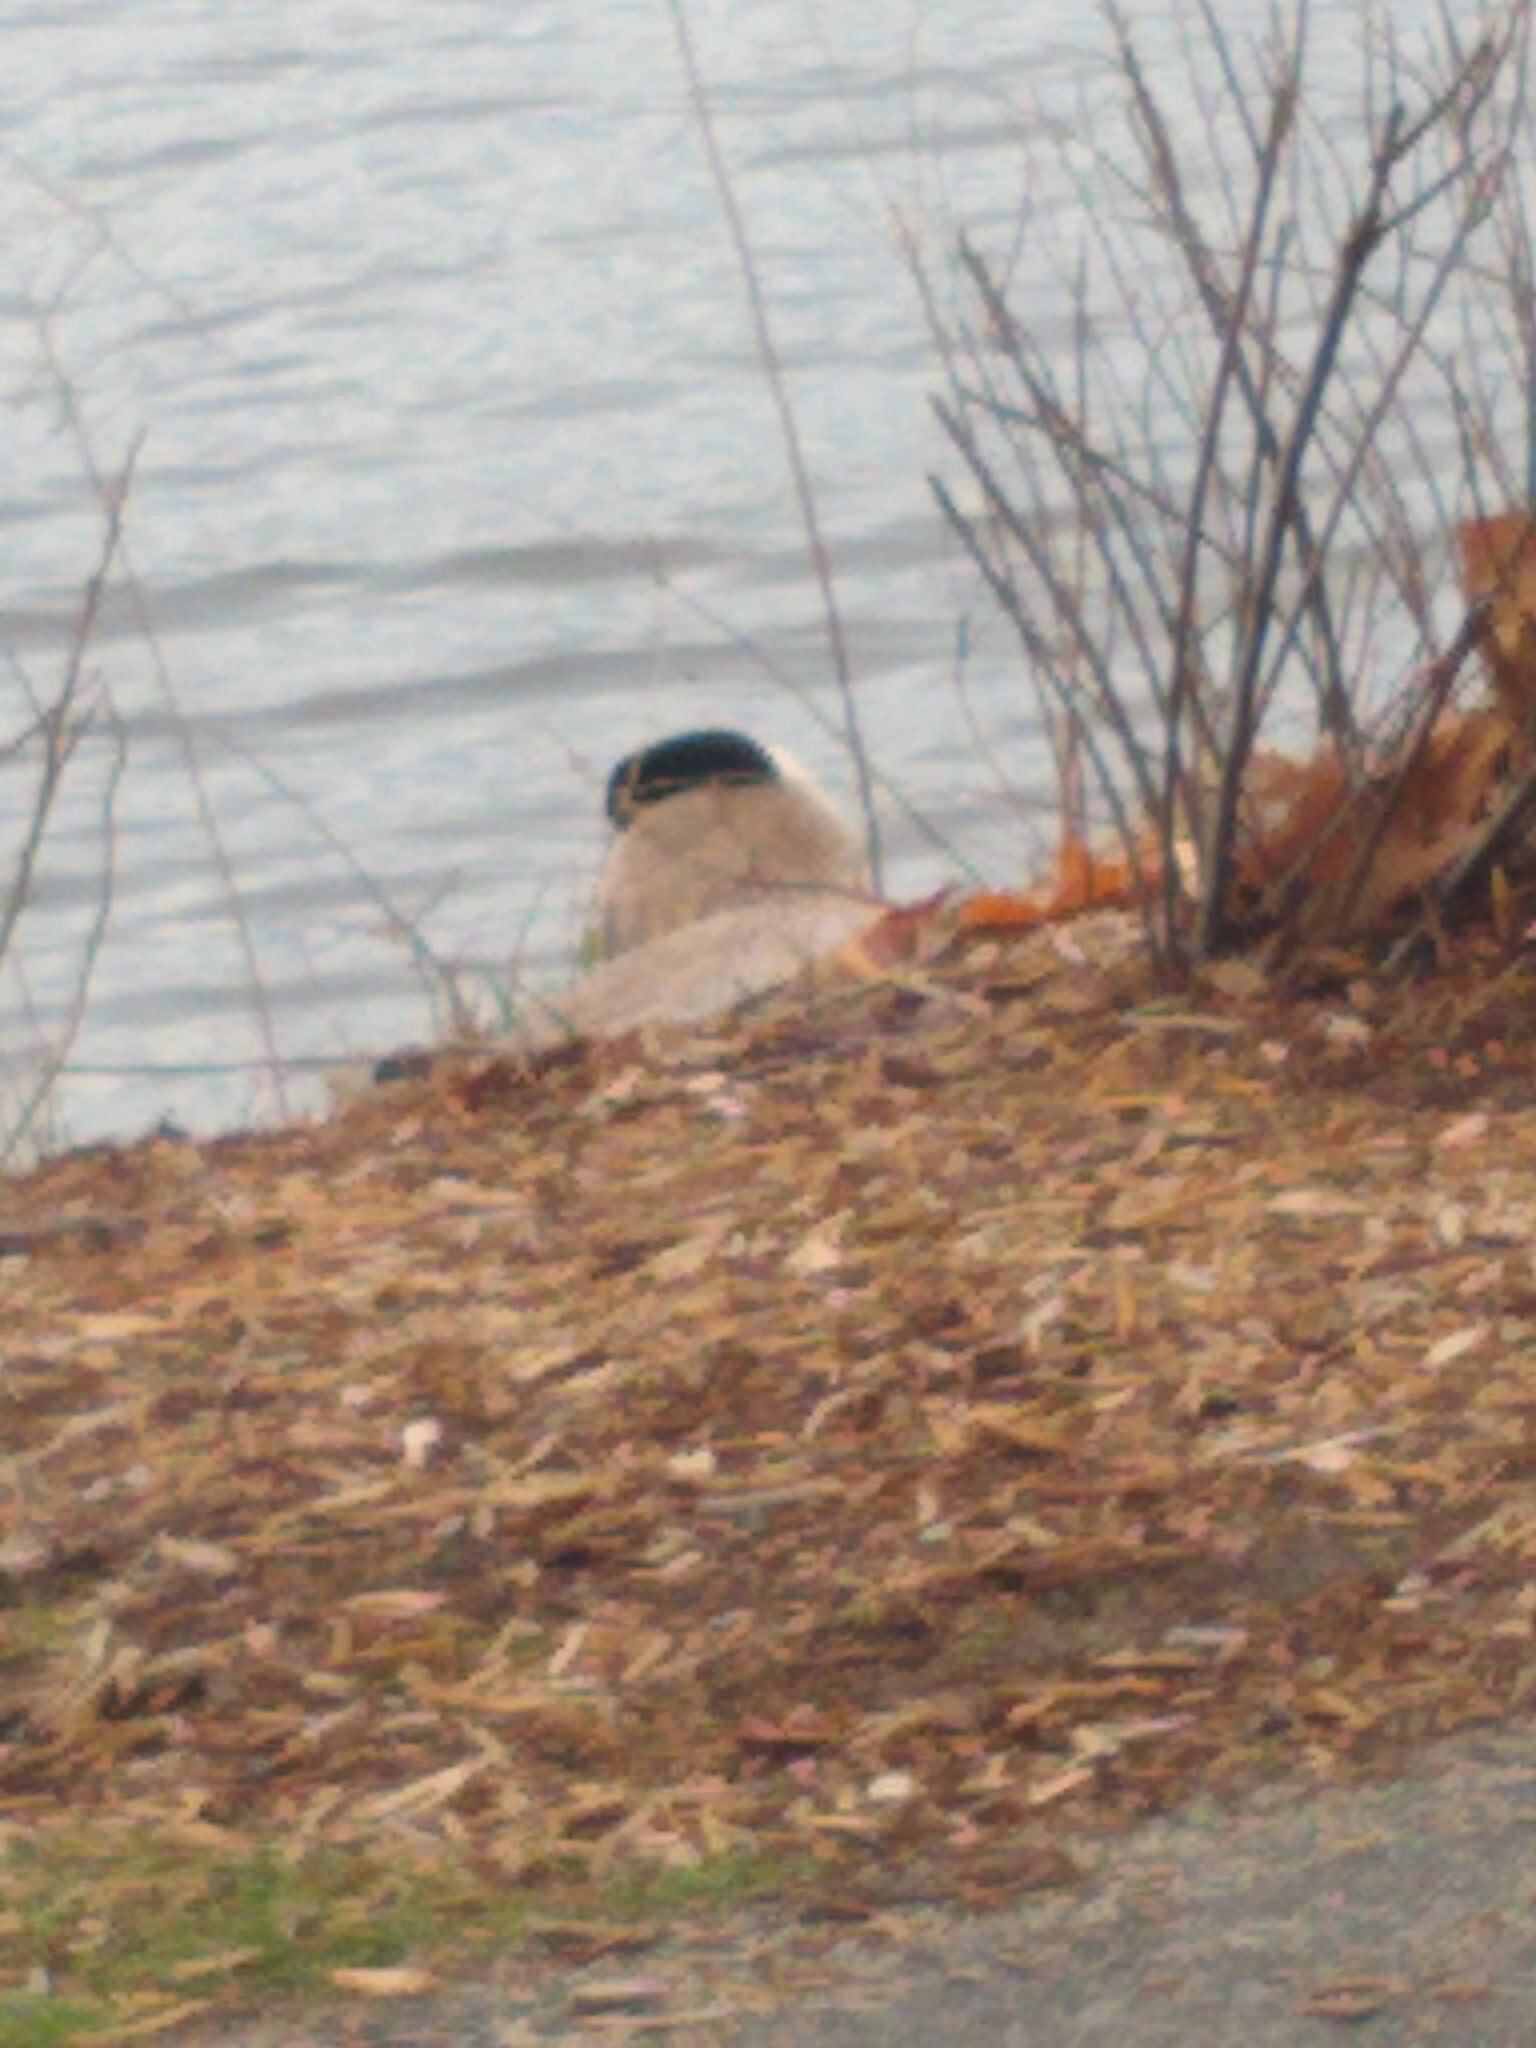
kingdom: Animalia
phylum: Chordata
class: Aves
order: Anseriformes
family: Anatidae
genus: Branta
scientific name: Branta canadensis
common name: Canada goose
